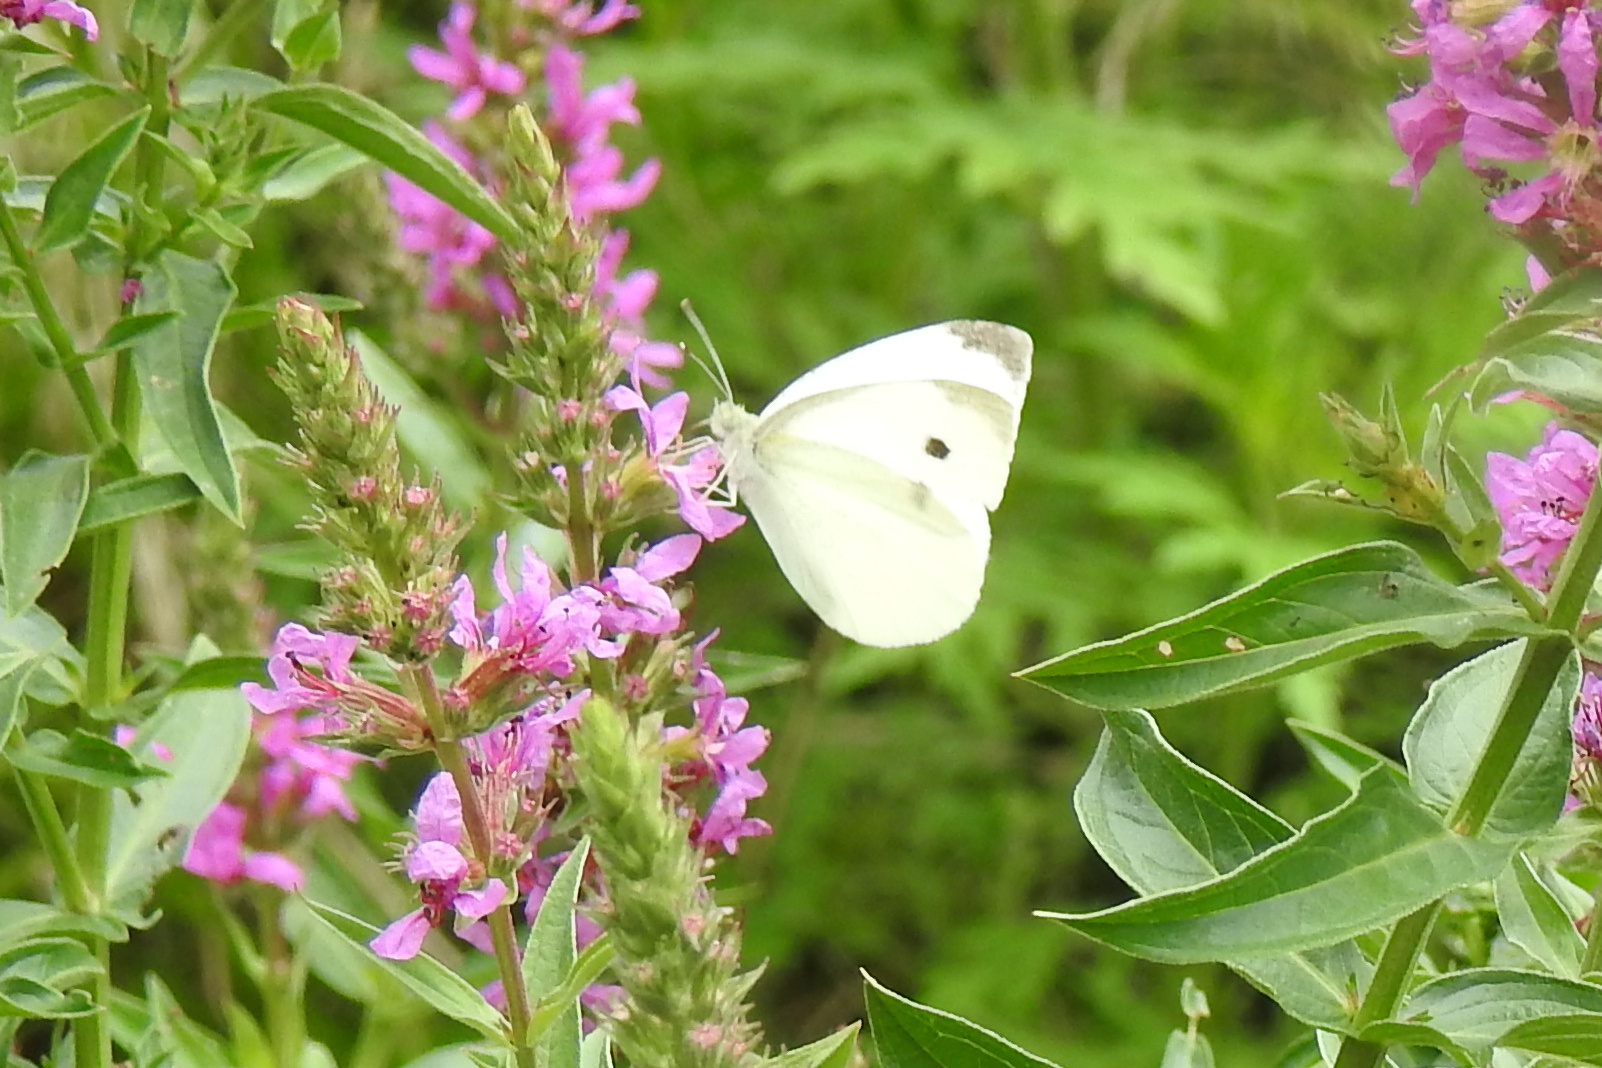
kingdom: Animalia
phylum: Arthropoda
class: Insecta
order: Lepidoptera
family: Pieridae
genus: Pieris
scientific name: Pieris rapae
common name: Small white
